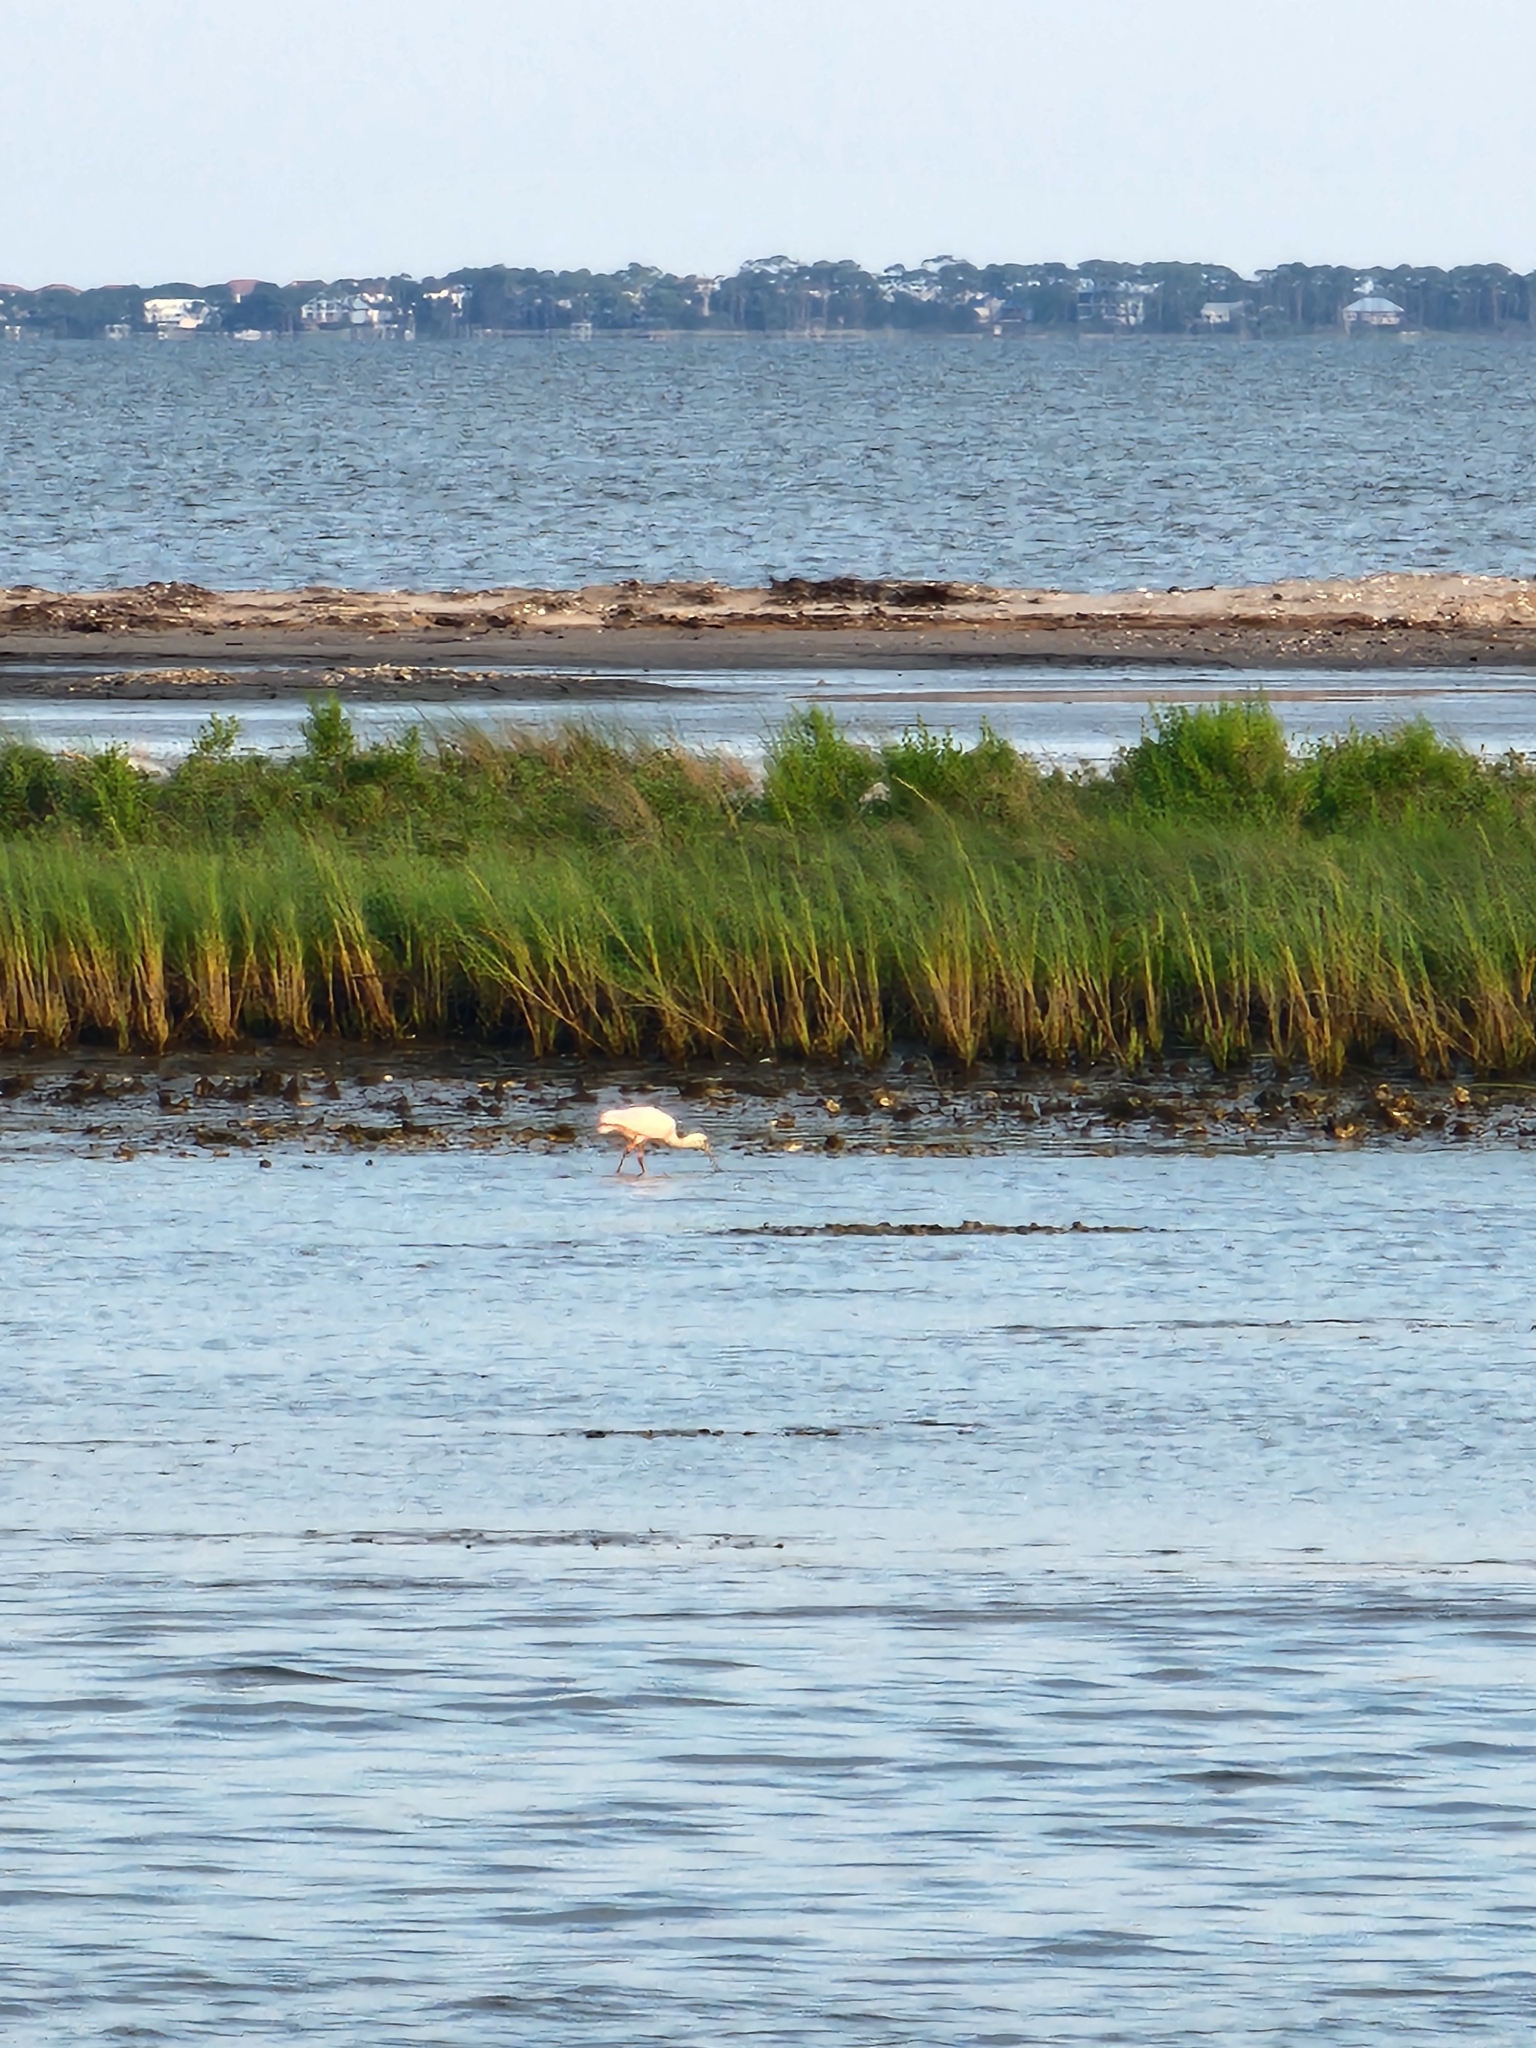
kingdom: Animalia
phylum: Chordata
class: Aves
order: Pelecaniformes
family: Threskiornithidae
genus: Platalea
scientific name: Platalea ajaja
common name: Roseate spoonbill
